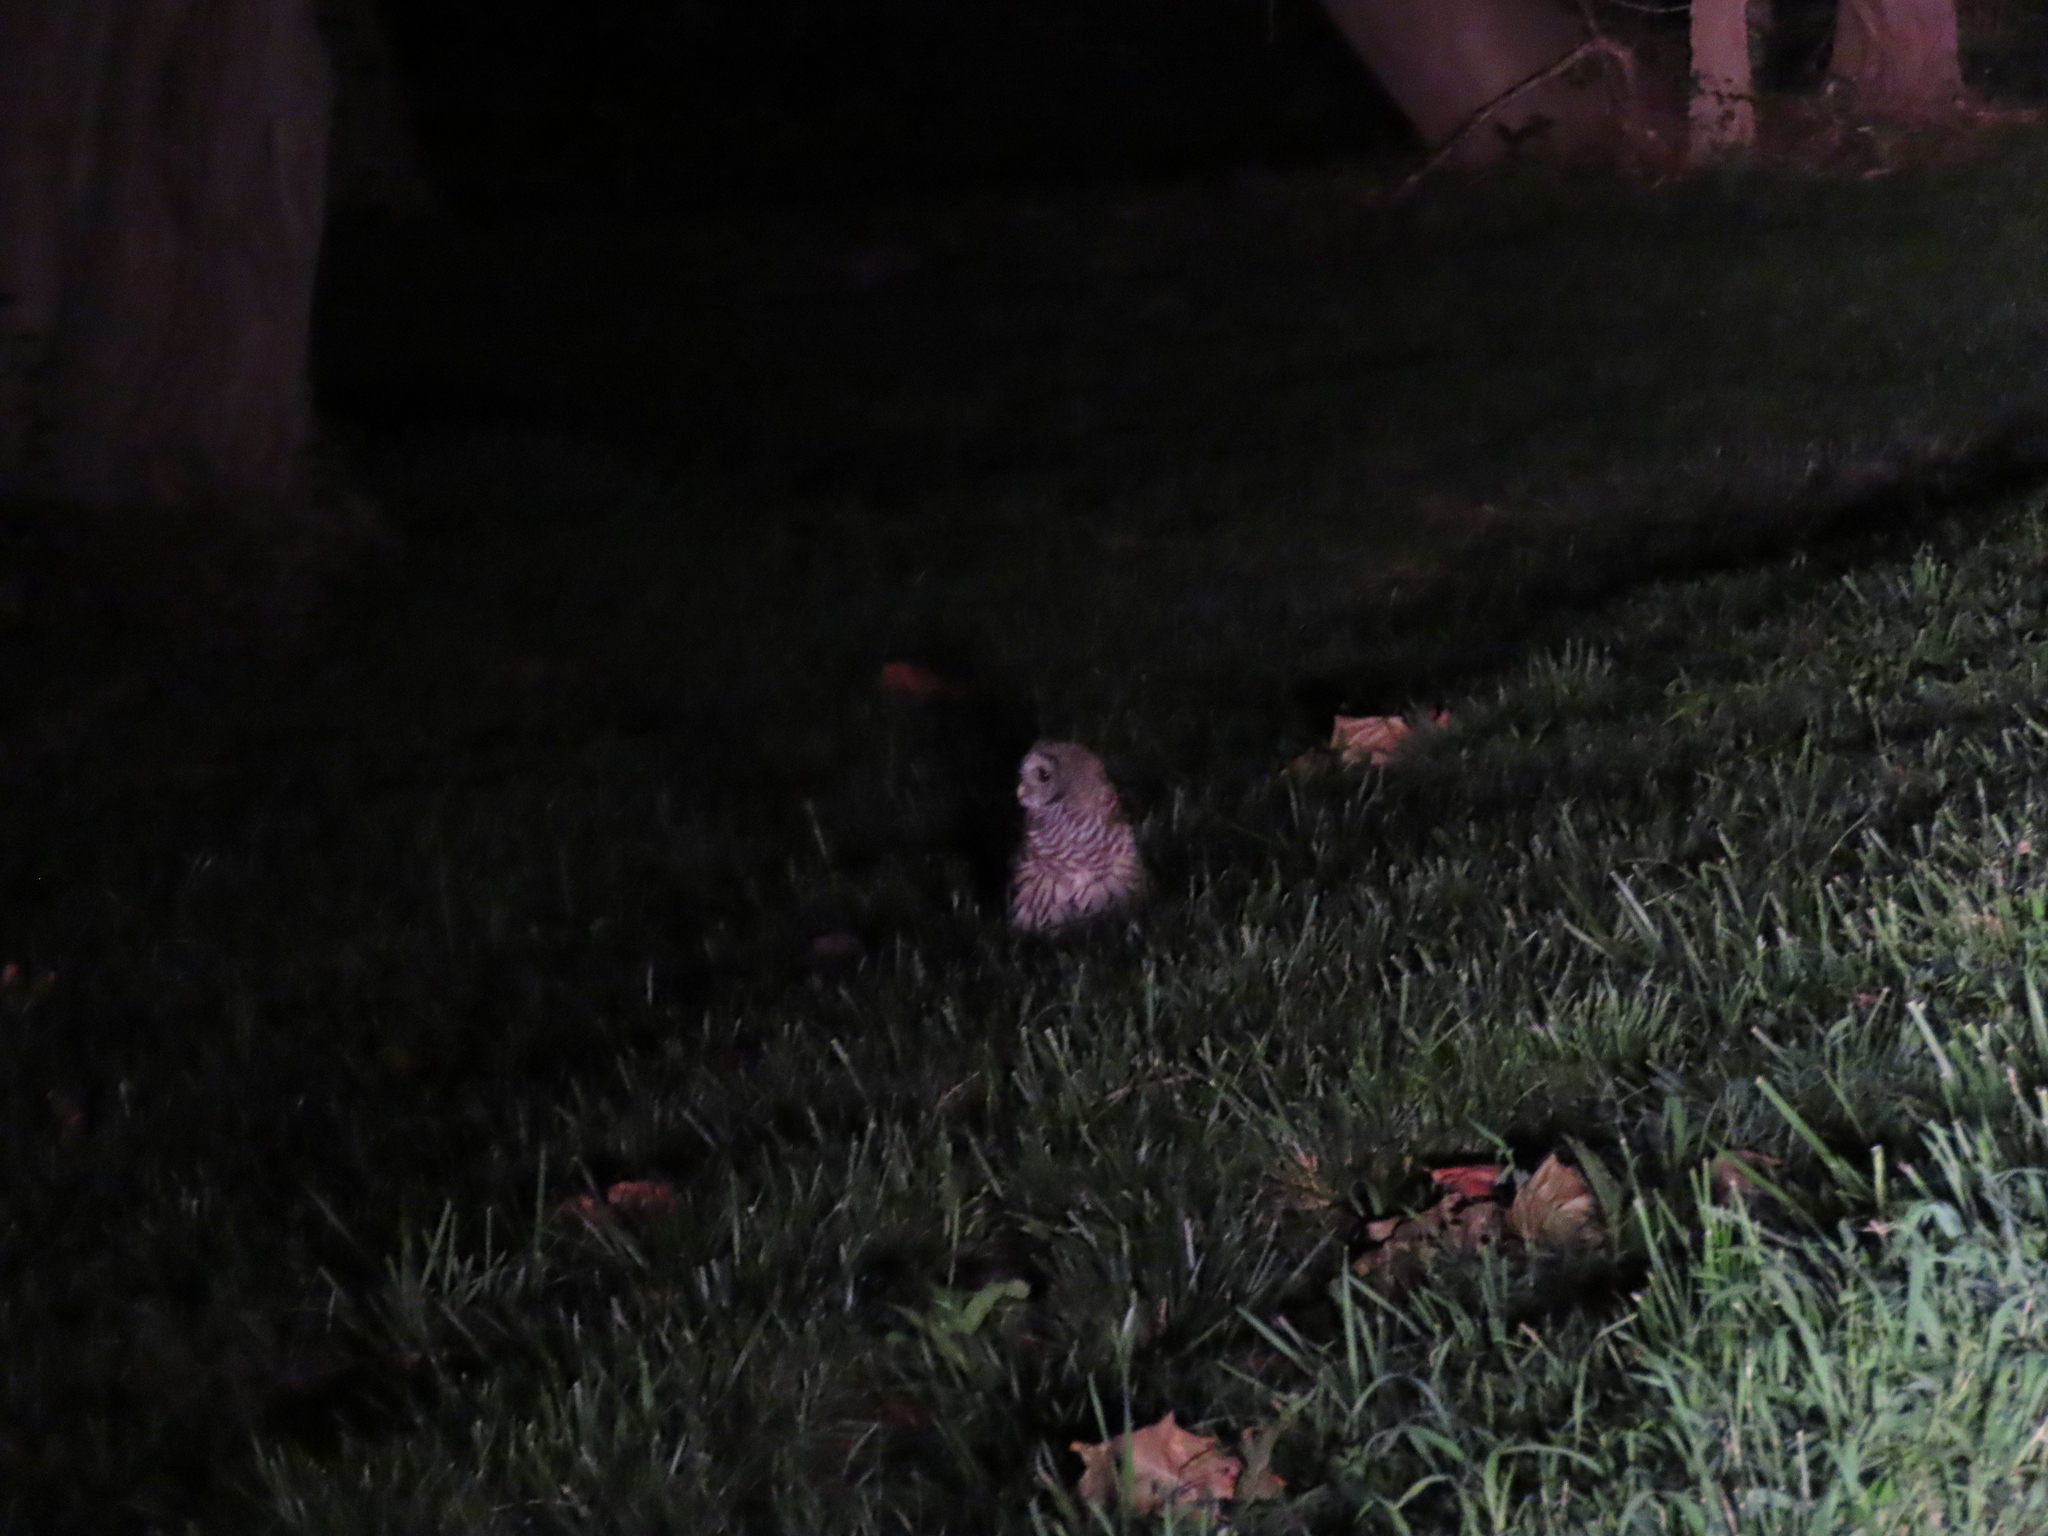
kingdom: Animalia
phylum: Chordata
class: Aves
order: Strigiformes
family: Strigidae
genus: Strix
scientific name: Strix varia
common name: Barred owl
